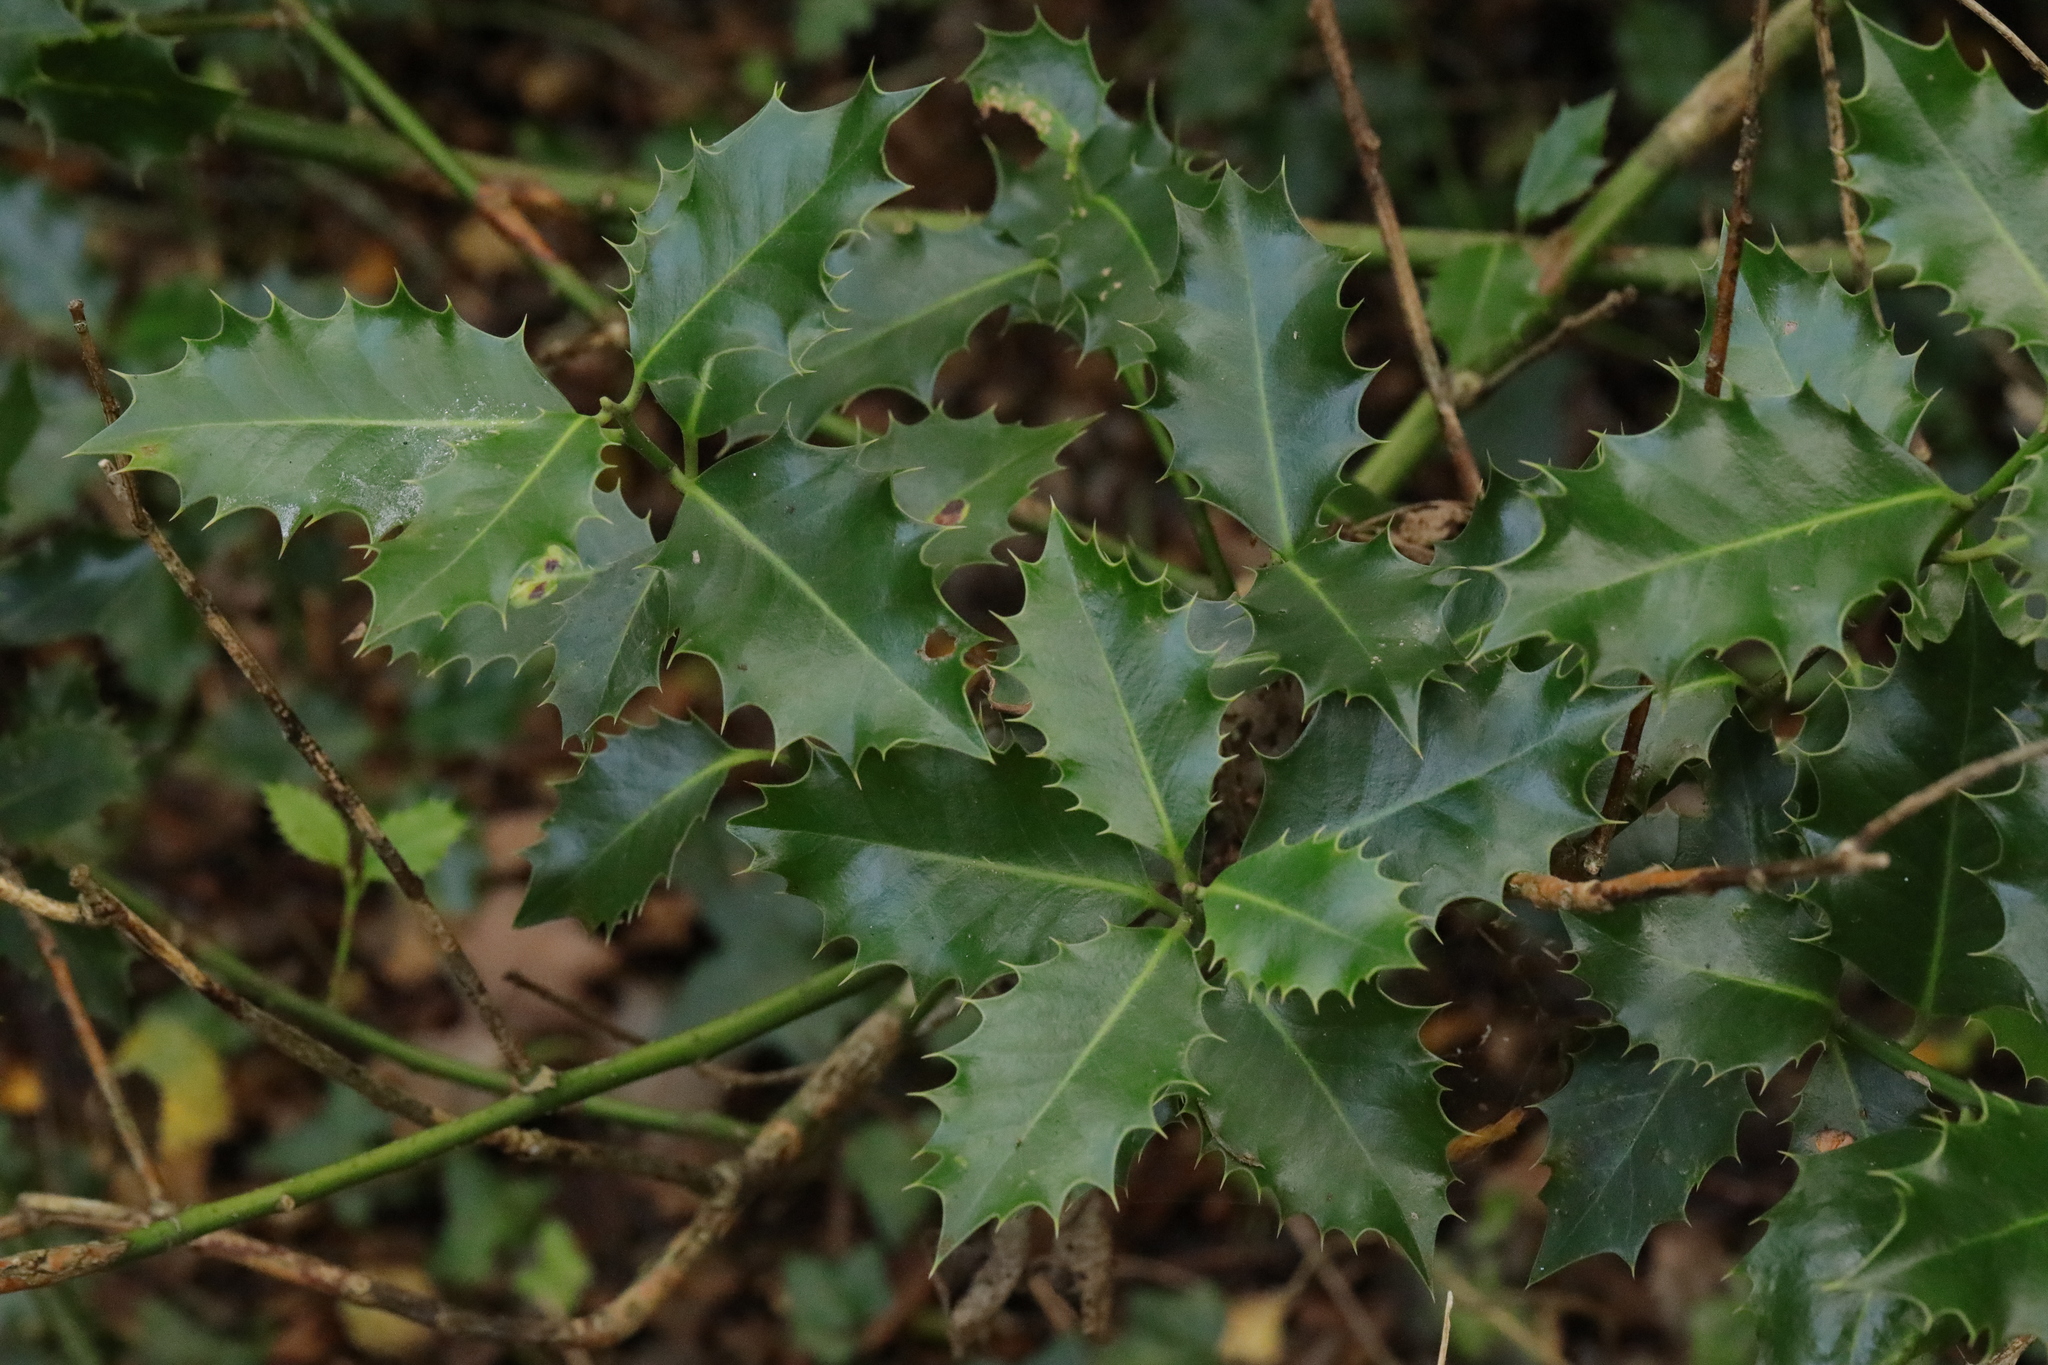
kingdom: Plantae
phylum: Tracheophyta
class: Magnoliopsida
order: Aquifoliales
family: Aquifoliaceae
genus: Ilex
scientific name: Ilex aquifolium
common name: English holly
